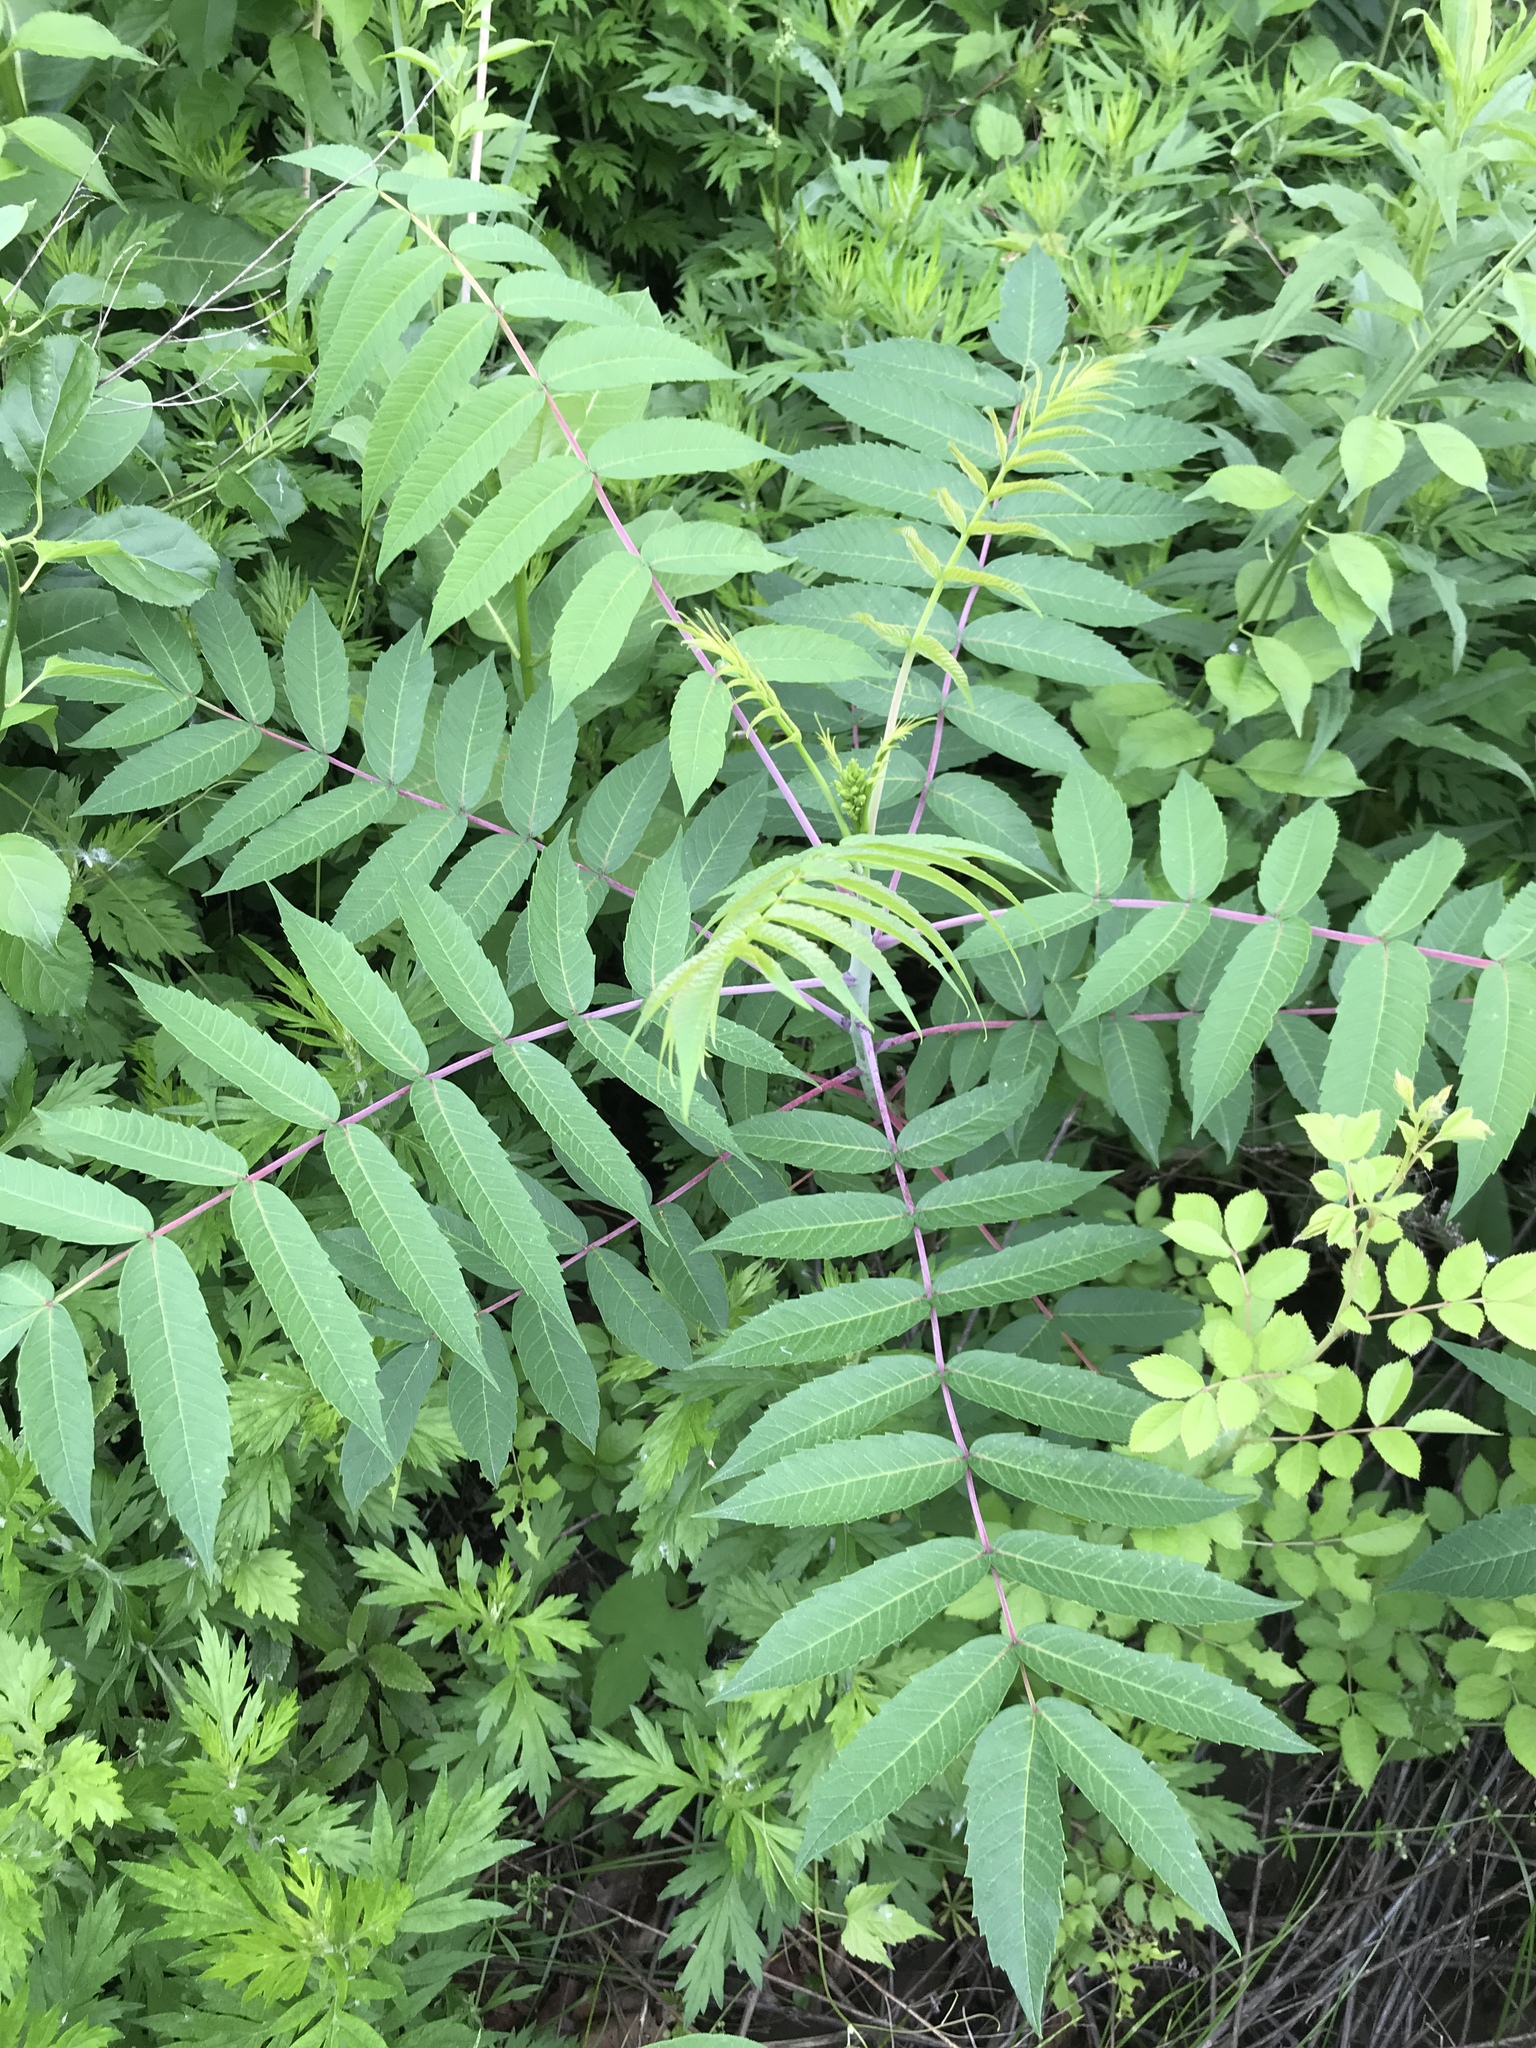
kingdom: Plantae
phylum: Tracheophyta
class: Magnoliopsida
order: Sapindales
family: Anacardiaceae
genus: Rhus
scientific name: Rhus glabra
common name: Scarlet sumac
